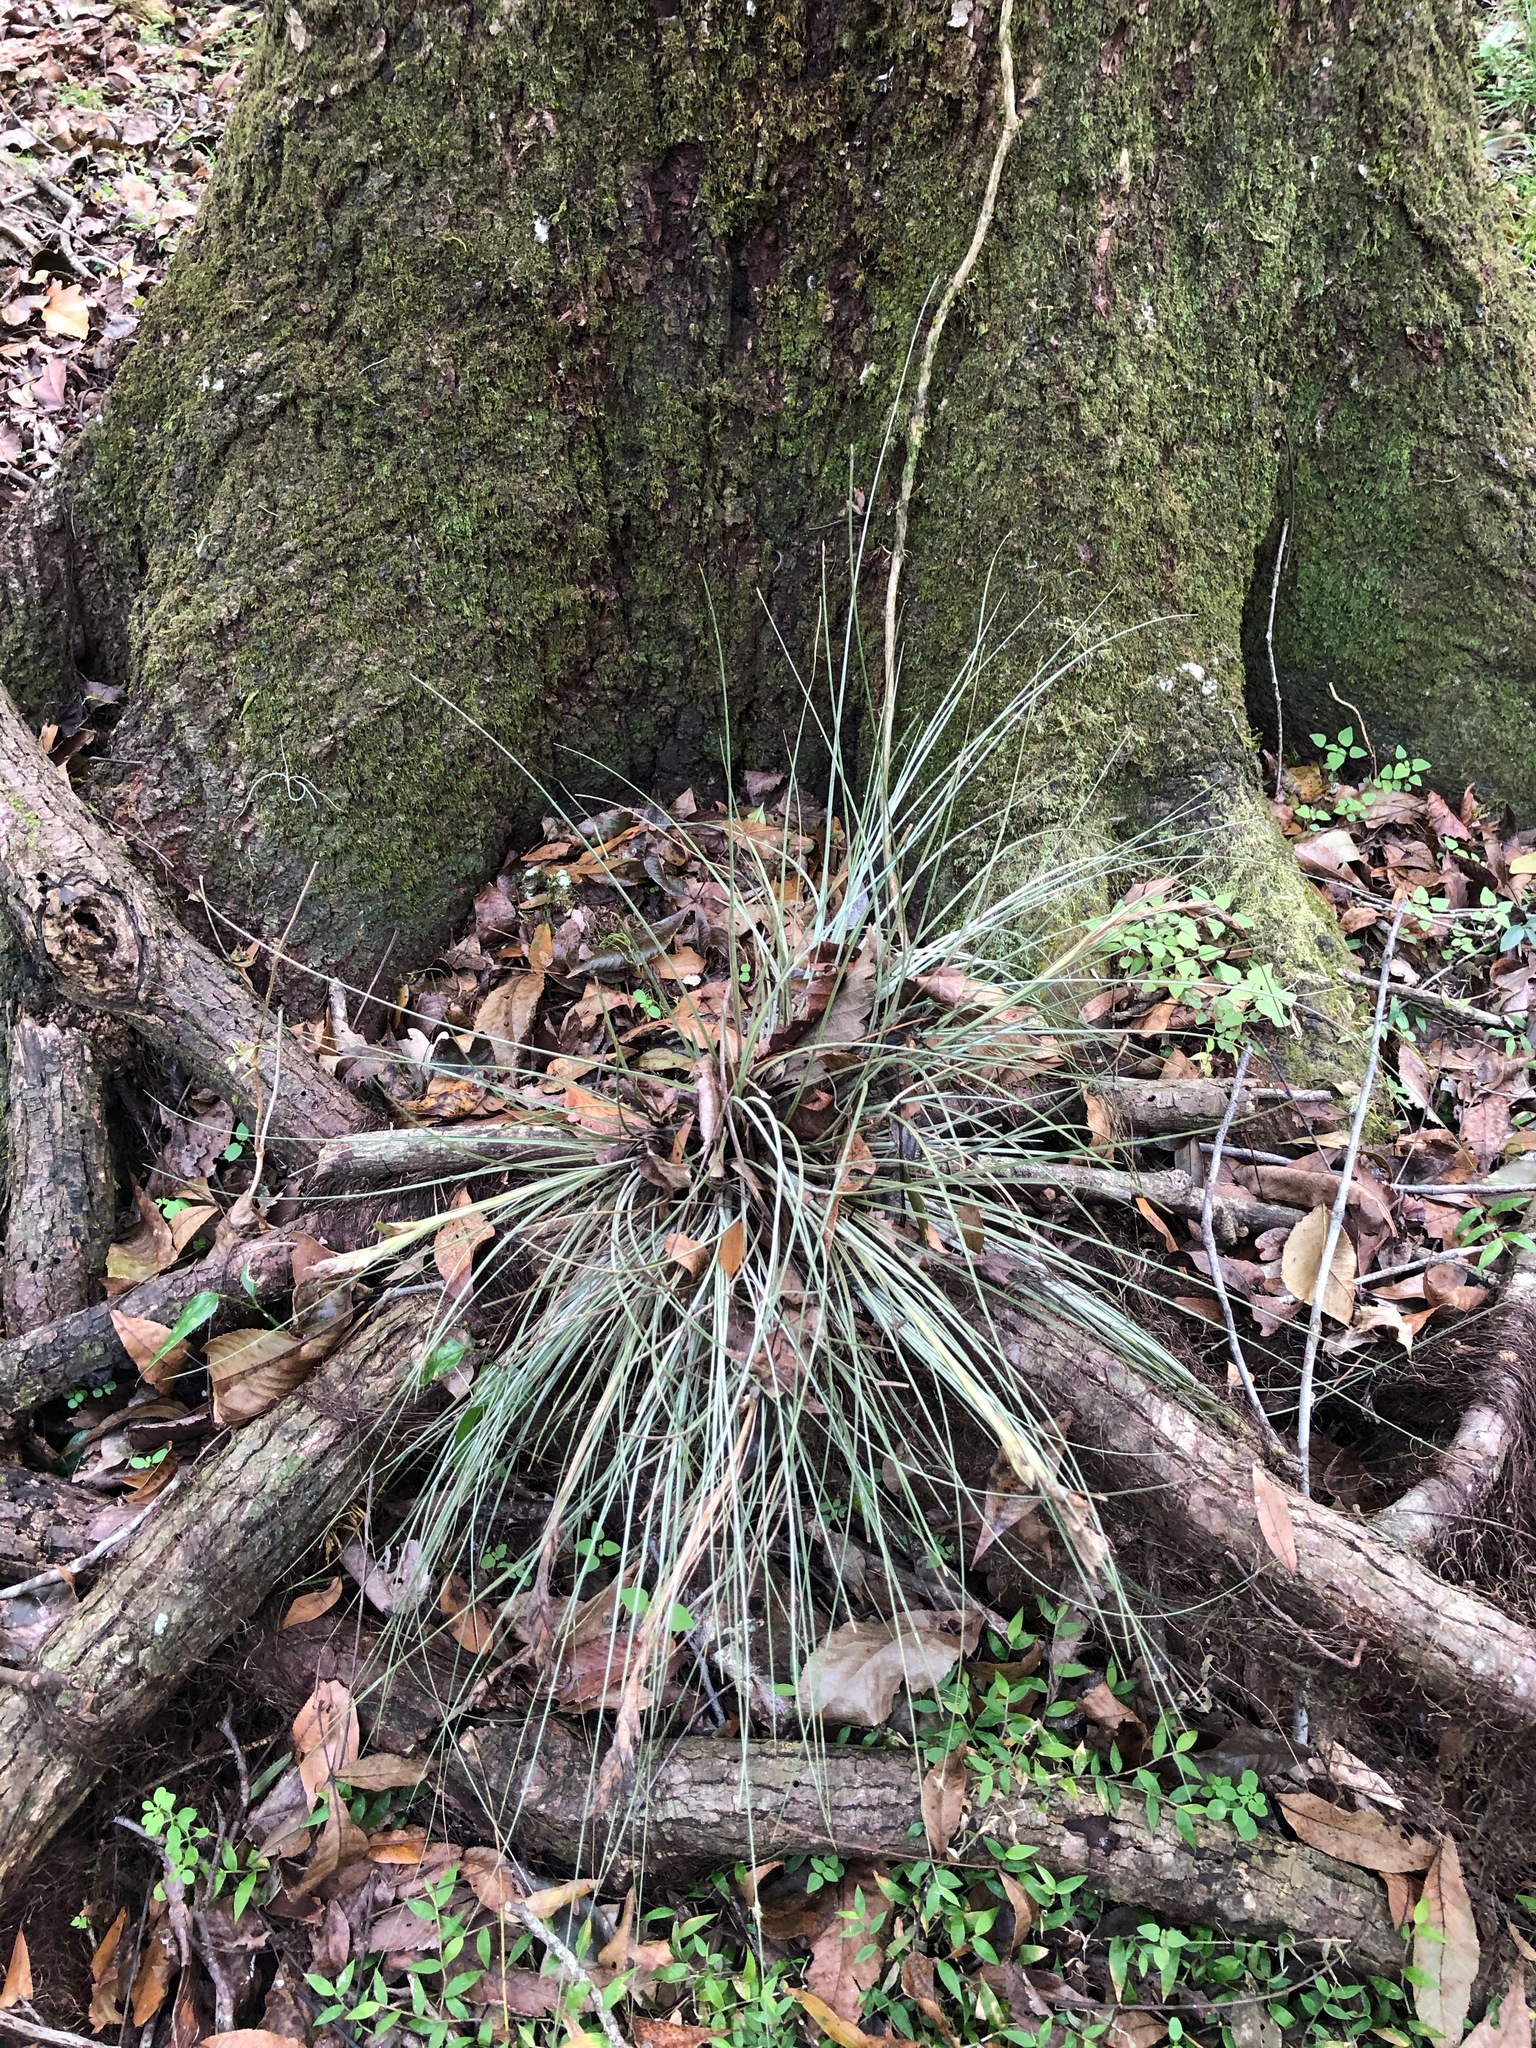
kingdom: Plantae
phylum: Tracheophyta
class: Liliopsida
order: Poales
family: Bromeliaceae
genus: Tillandsia
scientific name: Tillandsia bartramii
